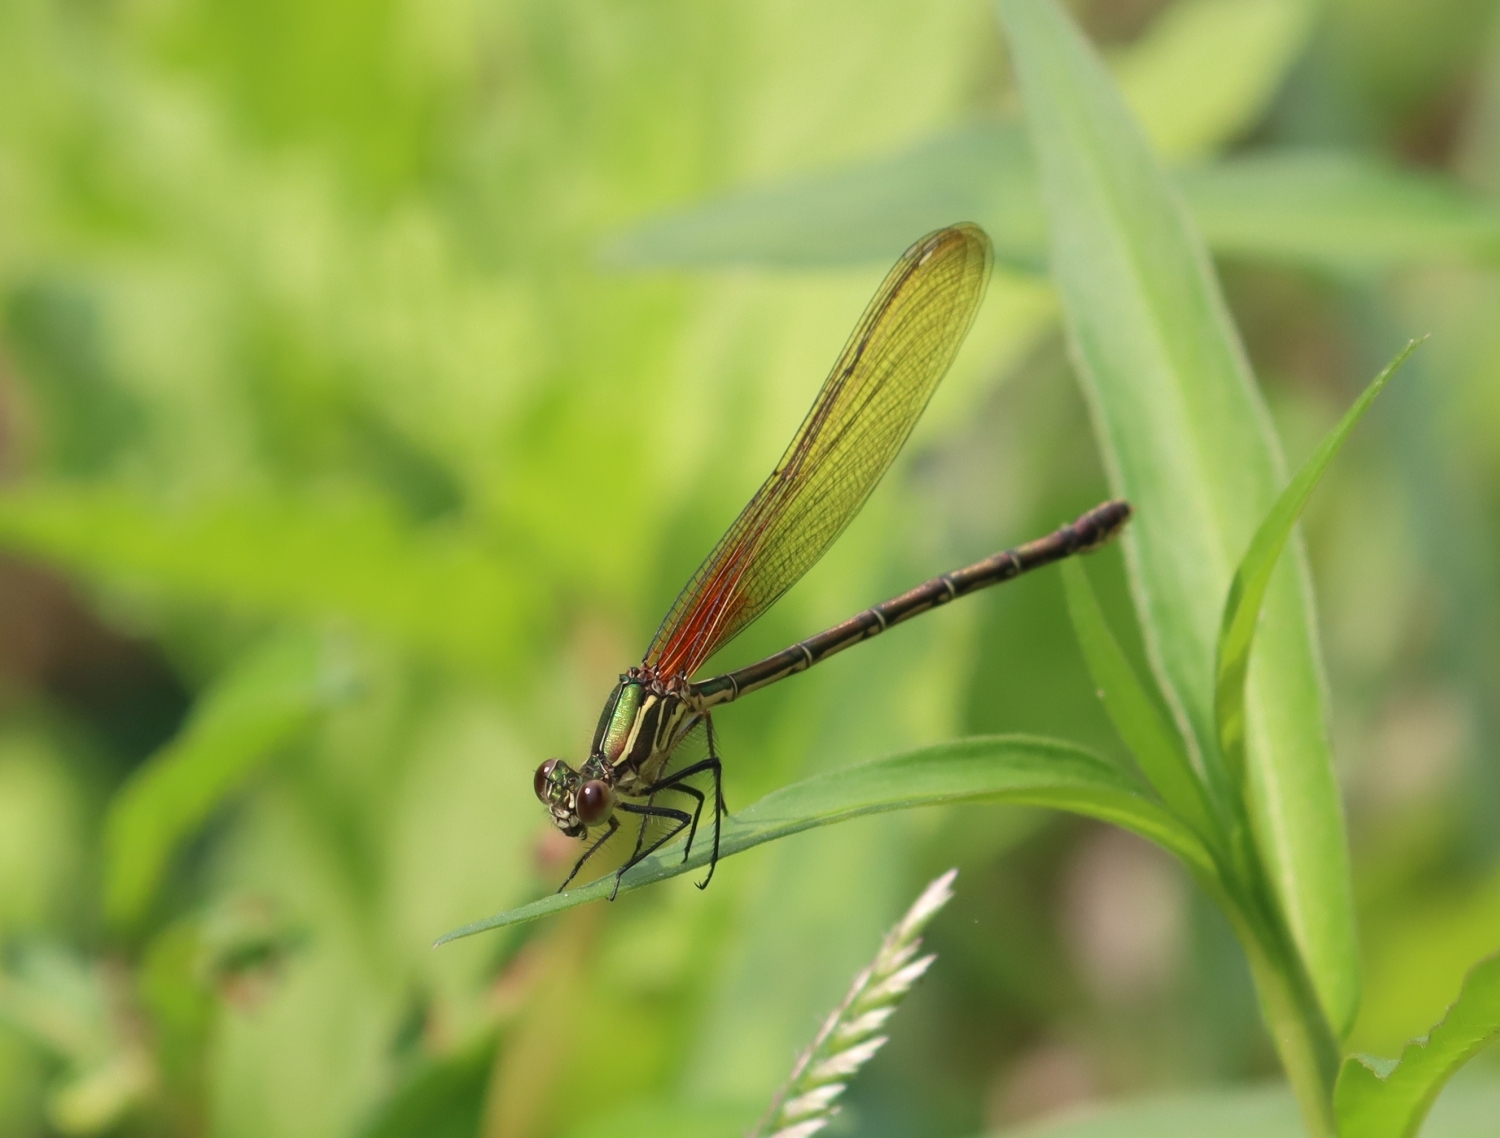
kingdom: Animalia
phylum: Arthropoda
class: Insecta
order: Odonata
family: Calopterygidae
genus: Hetaerina
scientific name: Hetaerina americana
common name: American rubyspot
